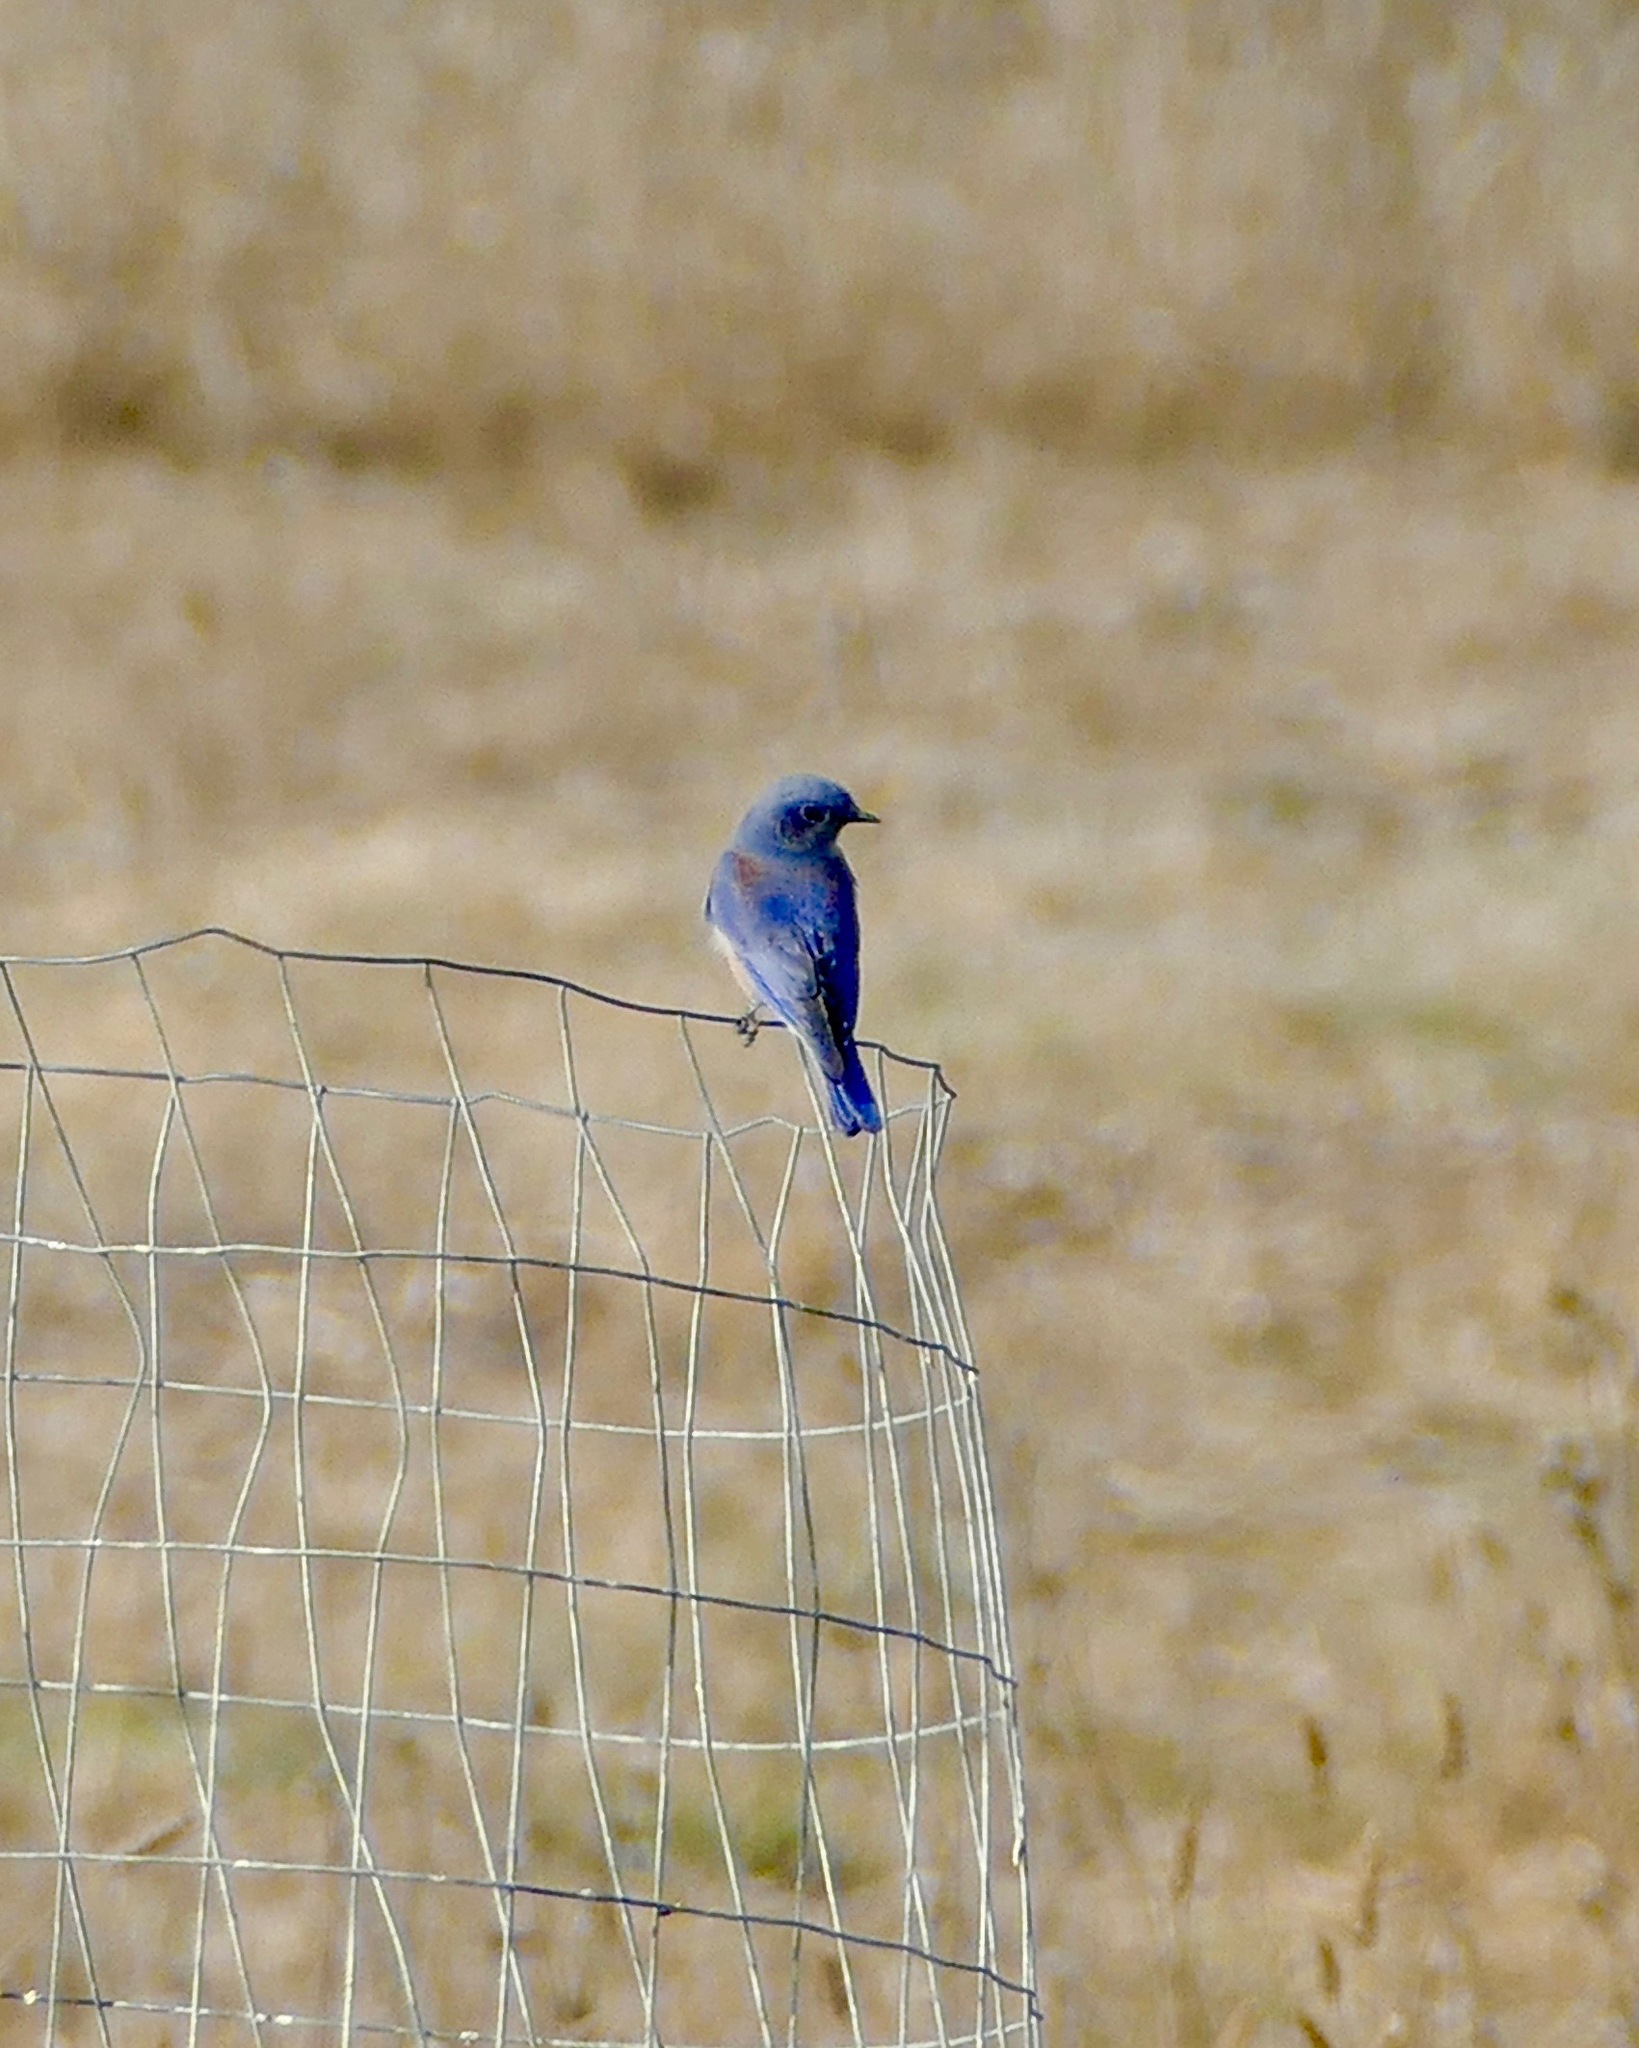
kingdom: Animalia
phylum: Chordata
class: Aves
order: Passeriformes
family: Turdidae
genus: Sialia
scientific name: Sialia mexicana
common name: Western bluebird
